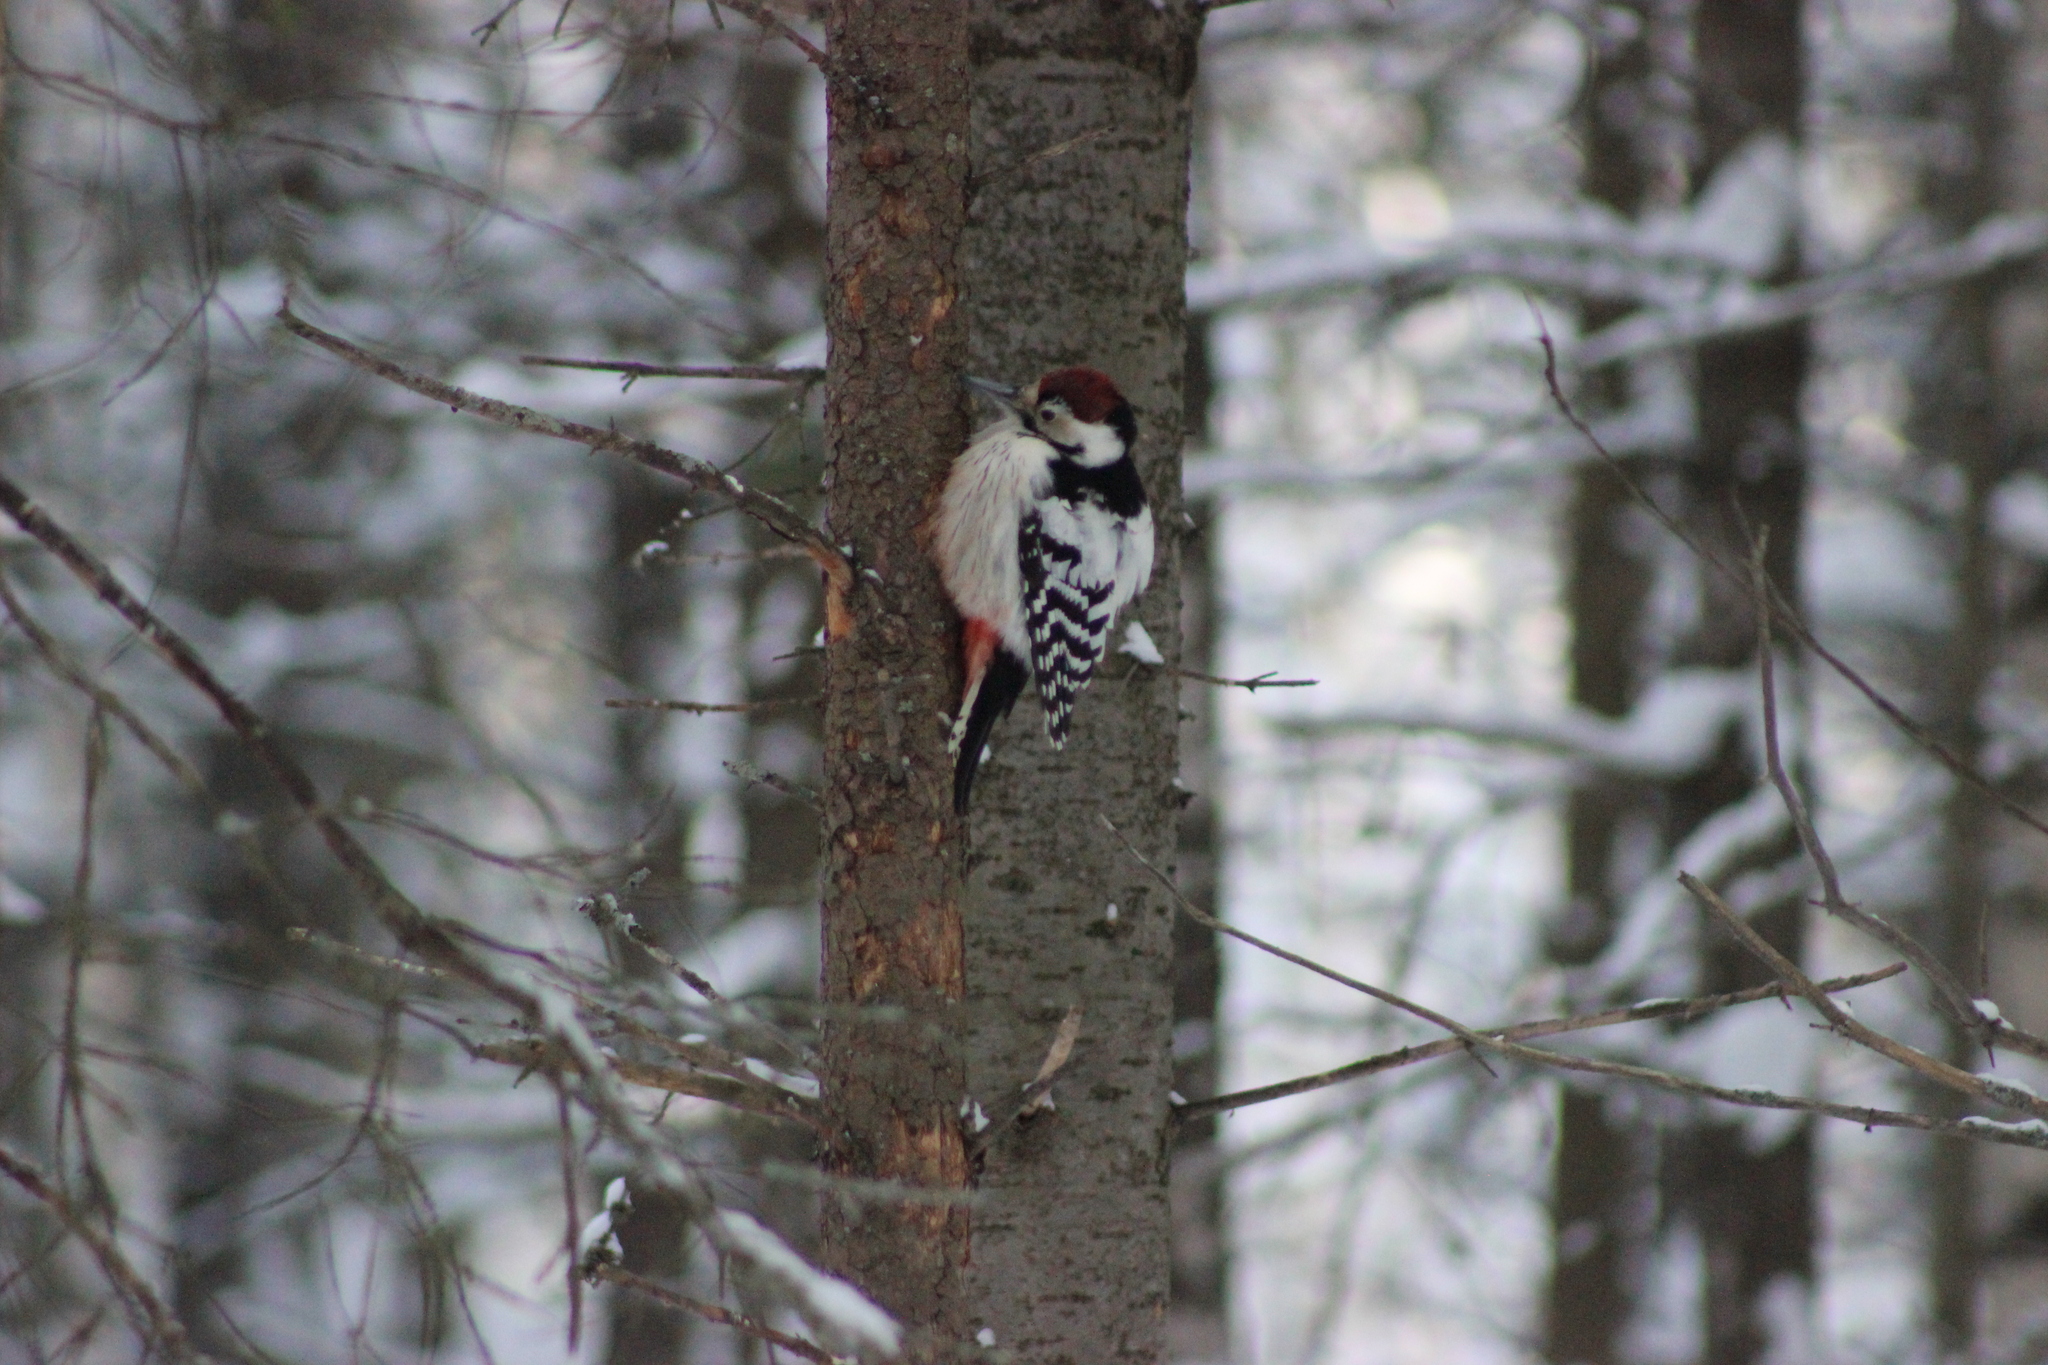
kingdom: Animalia
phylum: Chordata
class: Aves
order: Piciformes
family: Picidae
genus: Dendrocopos
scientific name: Dendrocopos leucotos
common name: White-backed woodpecker
